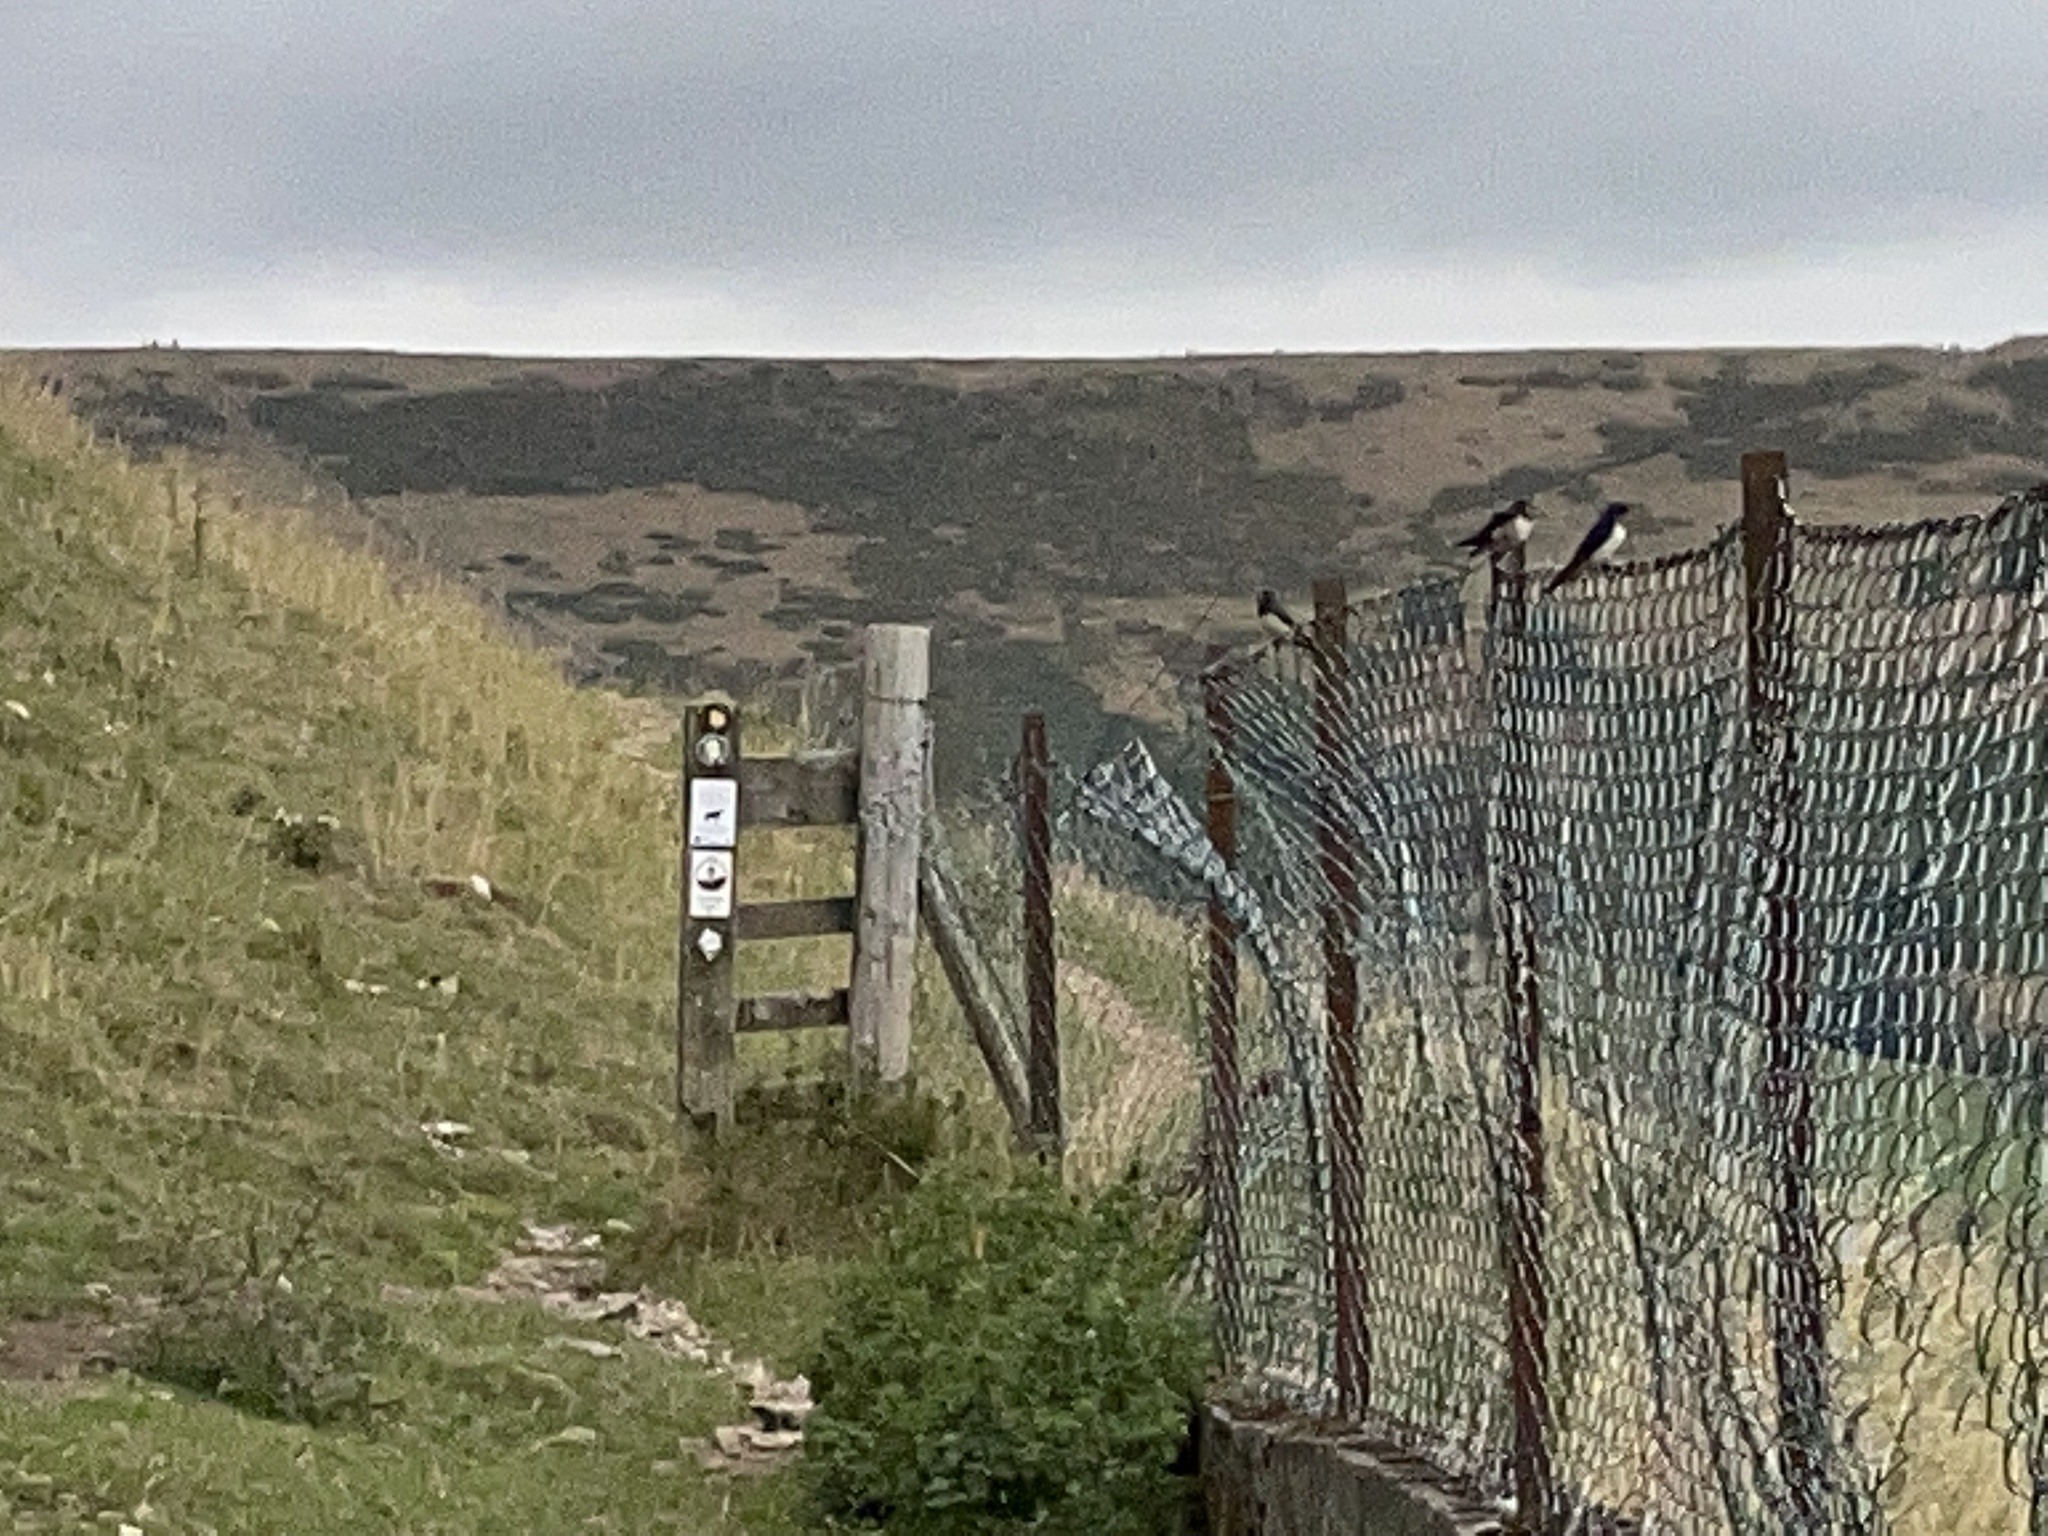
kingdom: Animalia
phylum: Chordata
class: Aves
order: Passeriformes
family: Hirundinidae
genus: Hirundo
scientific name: Hirundo rustica
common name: Barn swallow
